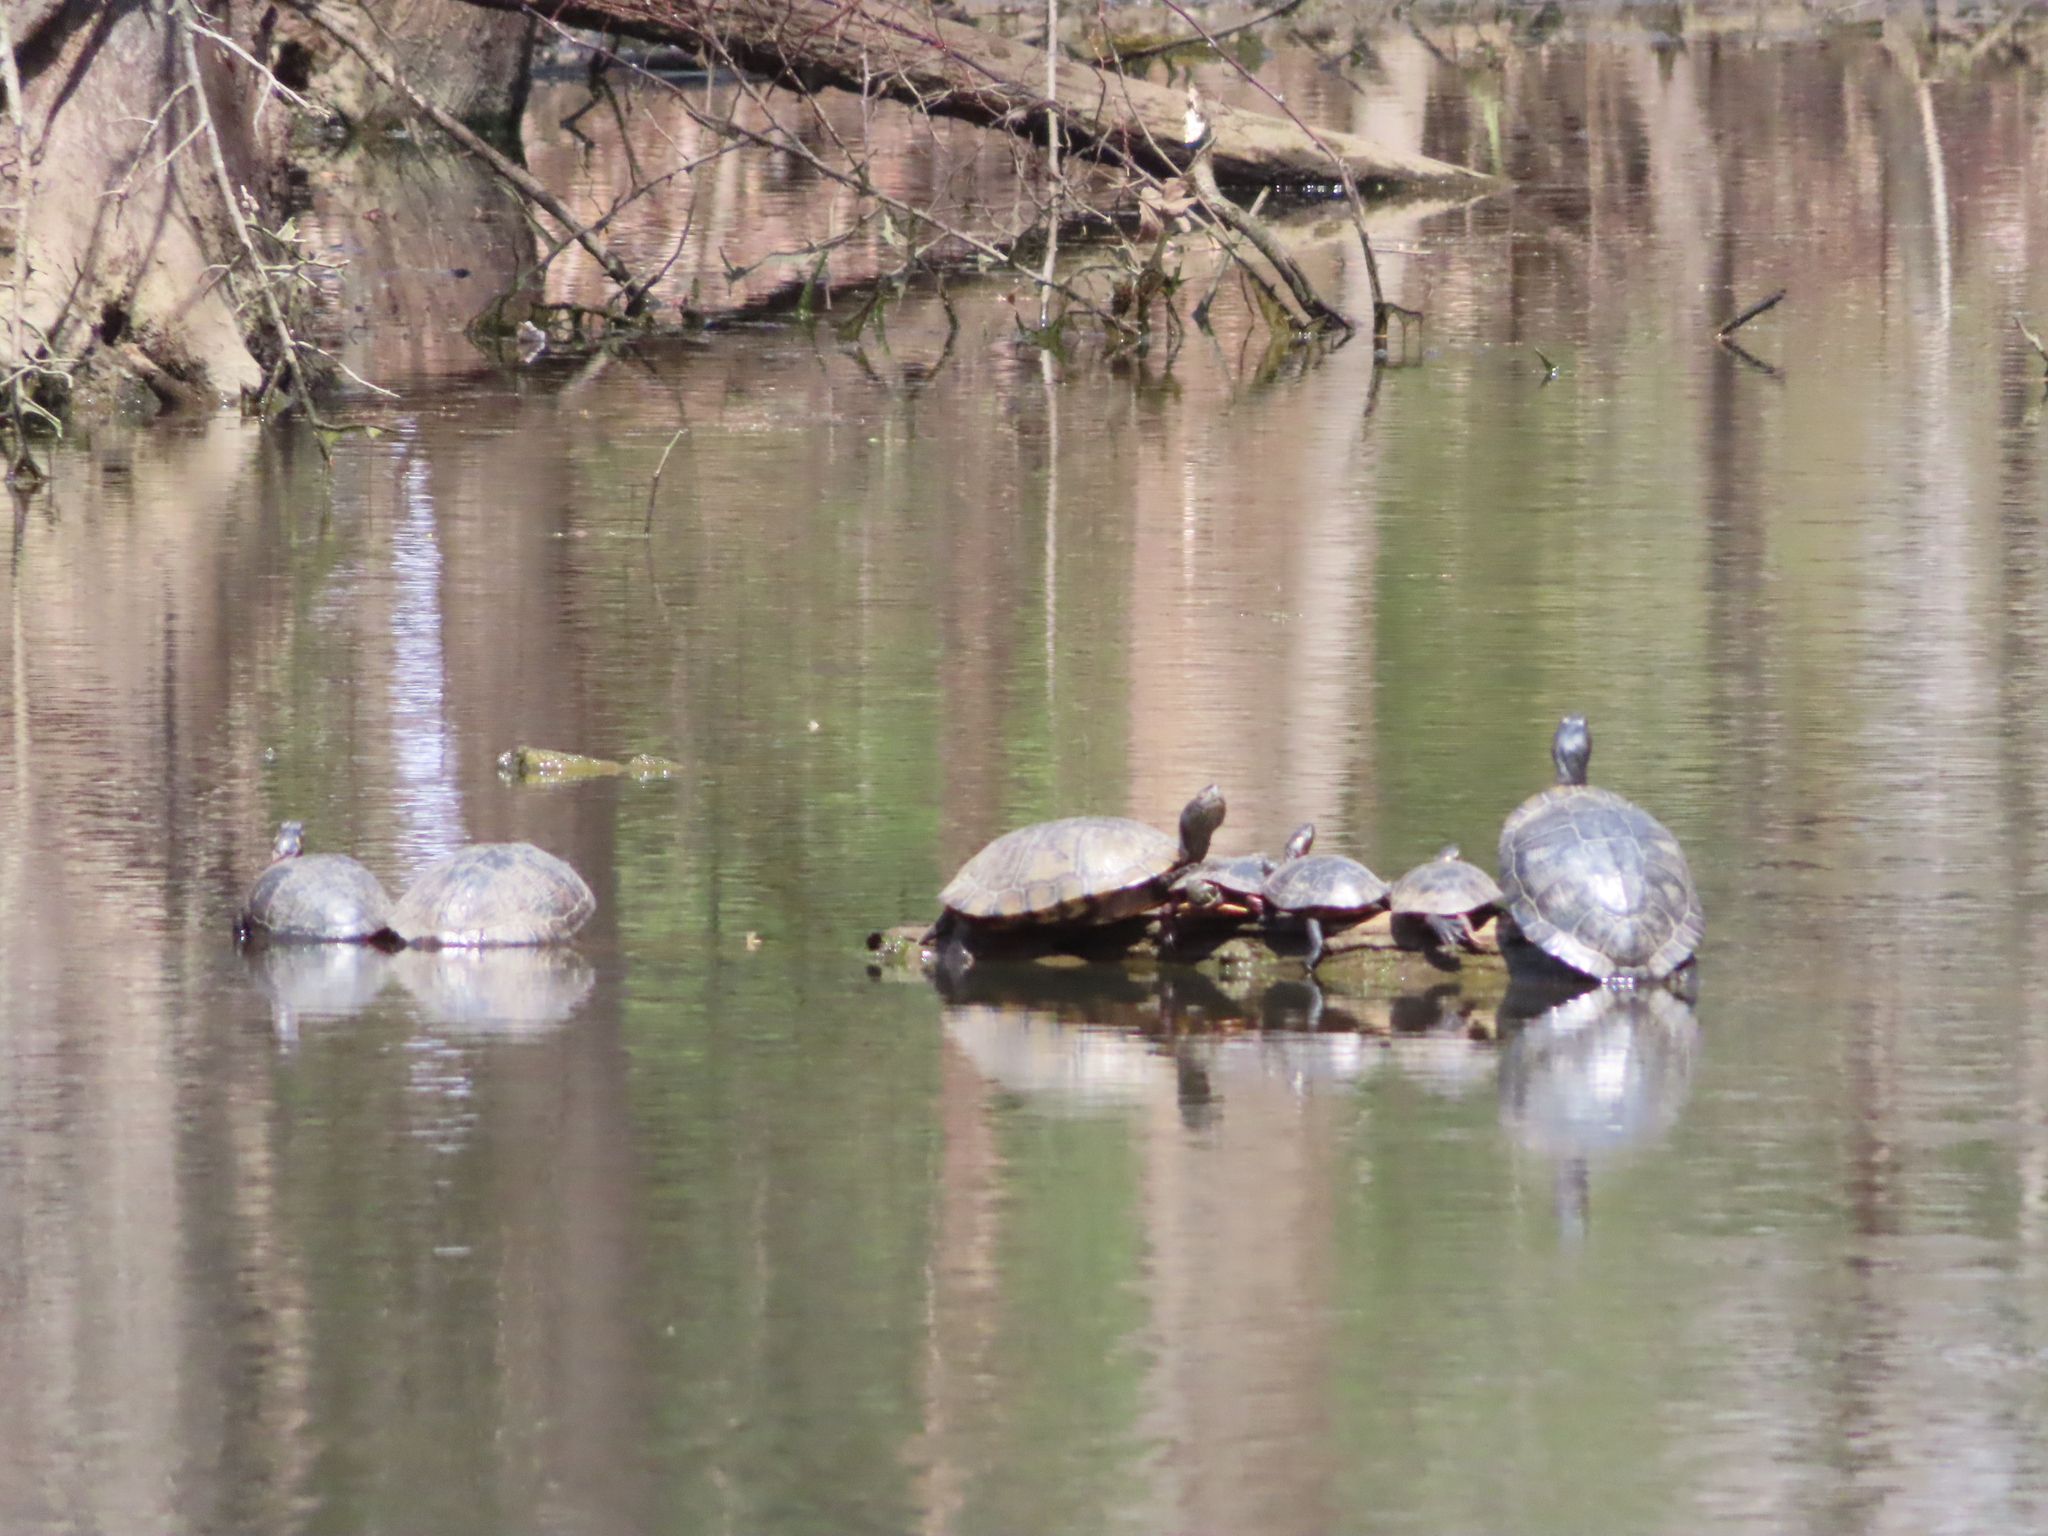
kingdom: Animalia
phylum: Chordata
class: Testudines
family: Emydidae
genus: Chrysemys
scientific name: Chrysemys picta
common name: Painted turtle
